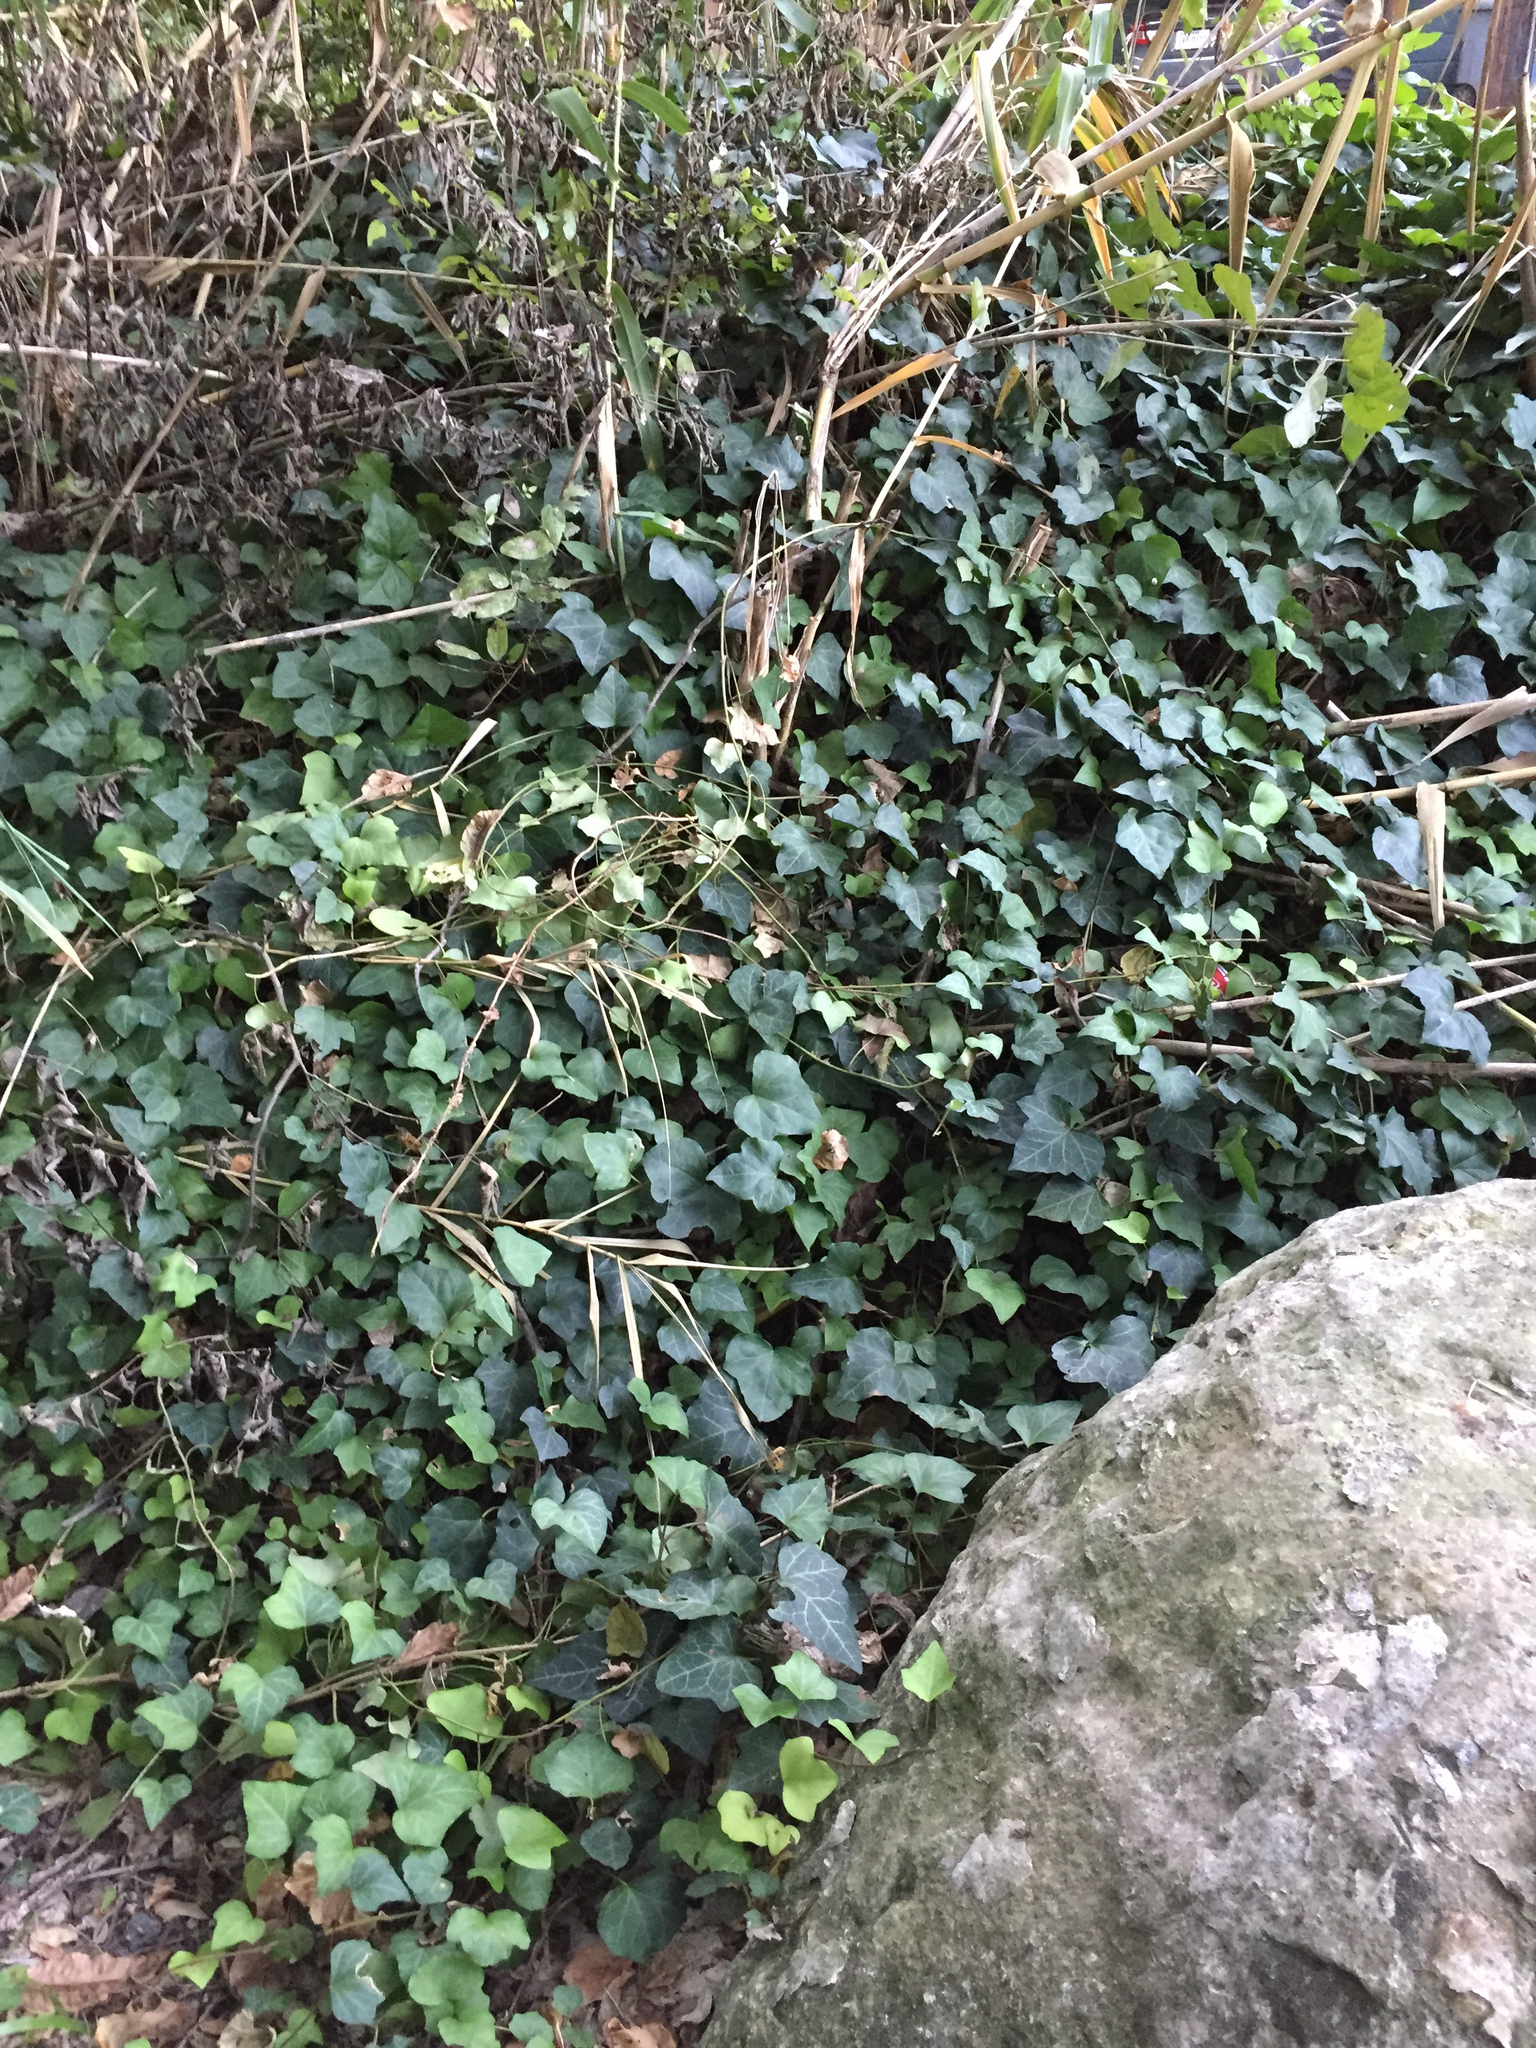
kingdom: Plantae
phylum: Tracheophyta
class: Magnoliopsida
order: Apiales
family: Araliaceae
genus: Hedera
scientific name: Hedera helix
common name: Ivy
